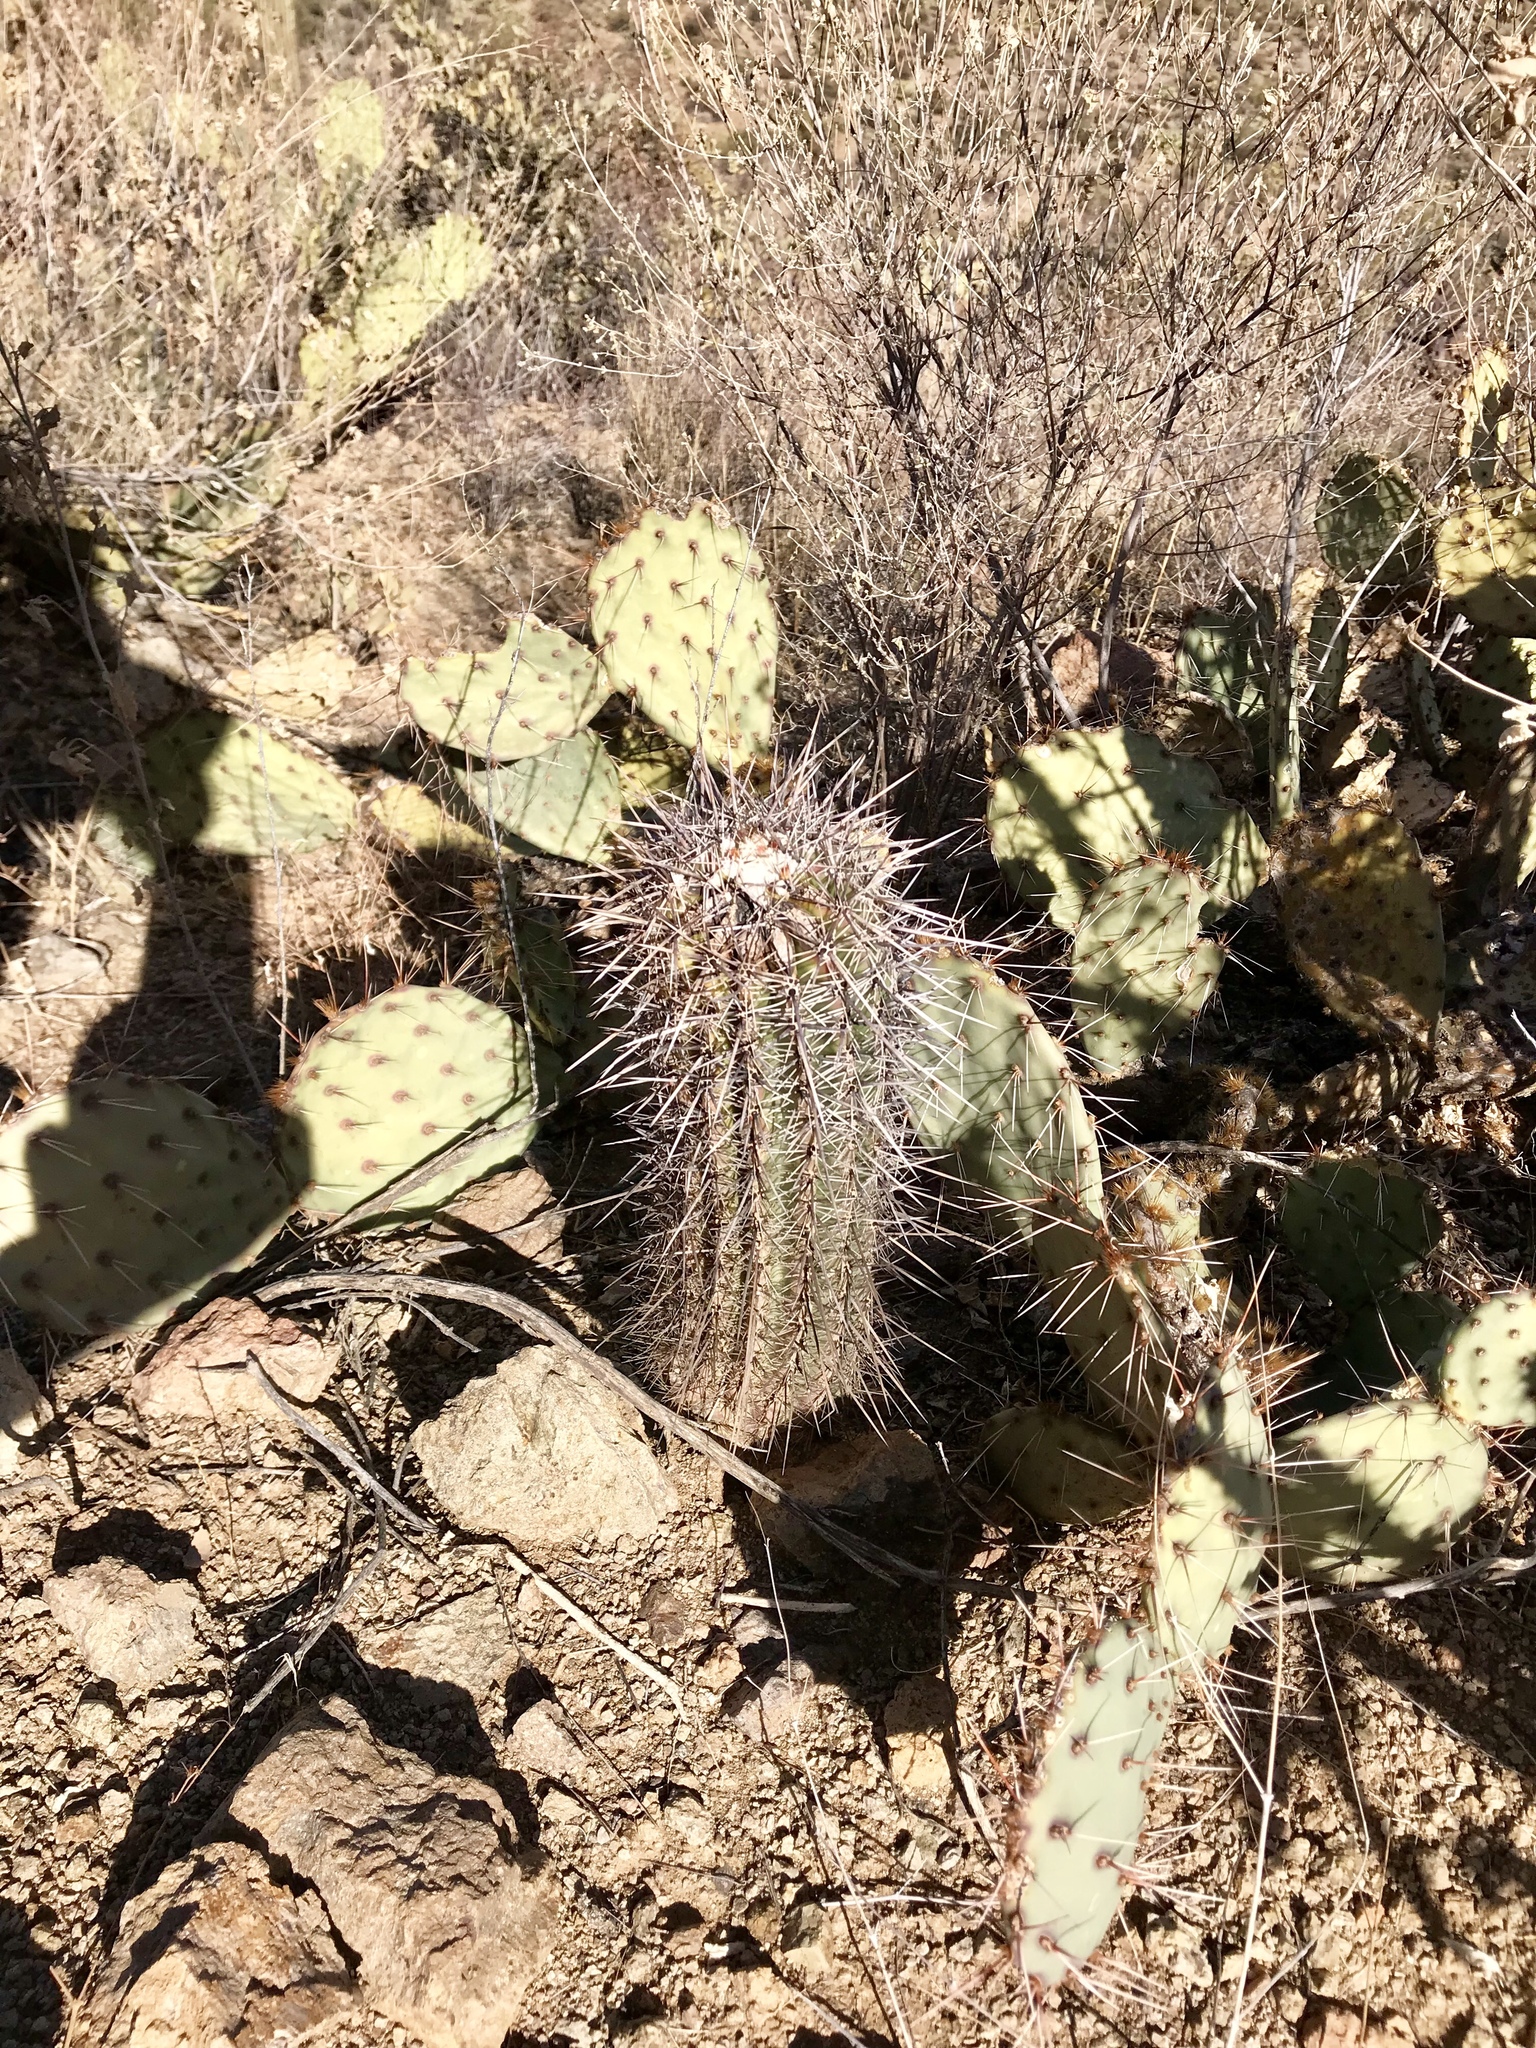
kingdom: Plantae
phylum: Tracheophyta
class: Magnoliopsida
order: Caryophyllales
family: Cactaceae
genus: Carnegiea
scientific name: Carnegiea gigantea
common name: Saguaro
